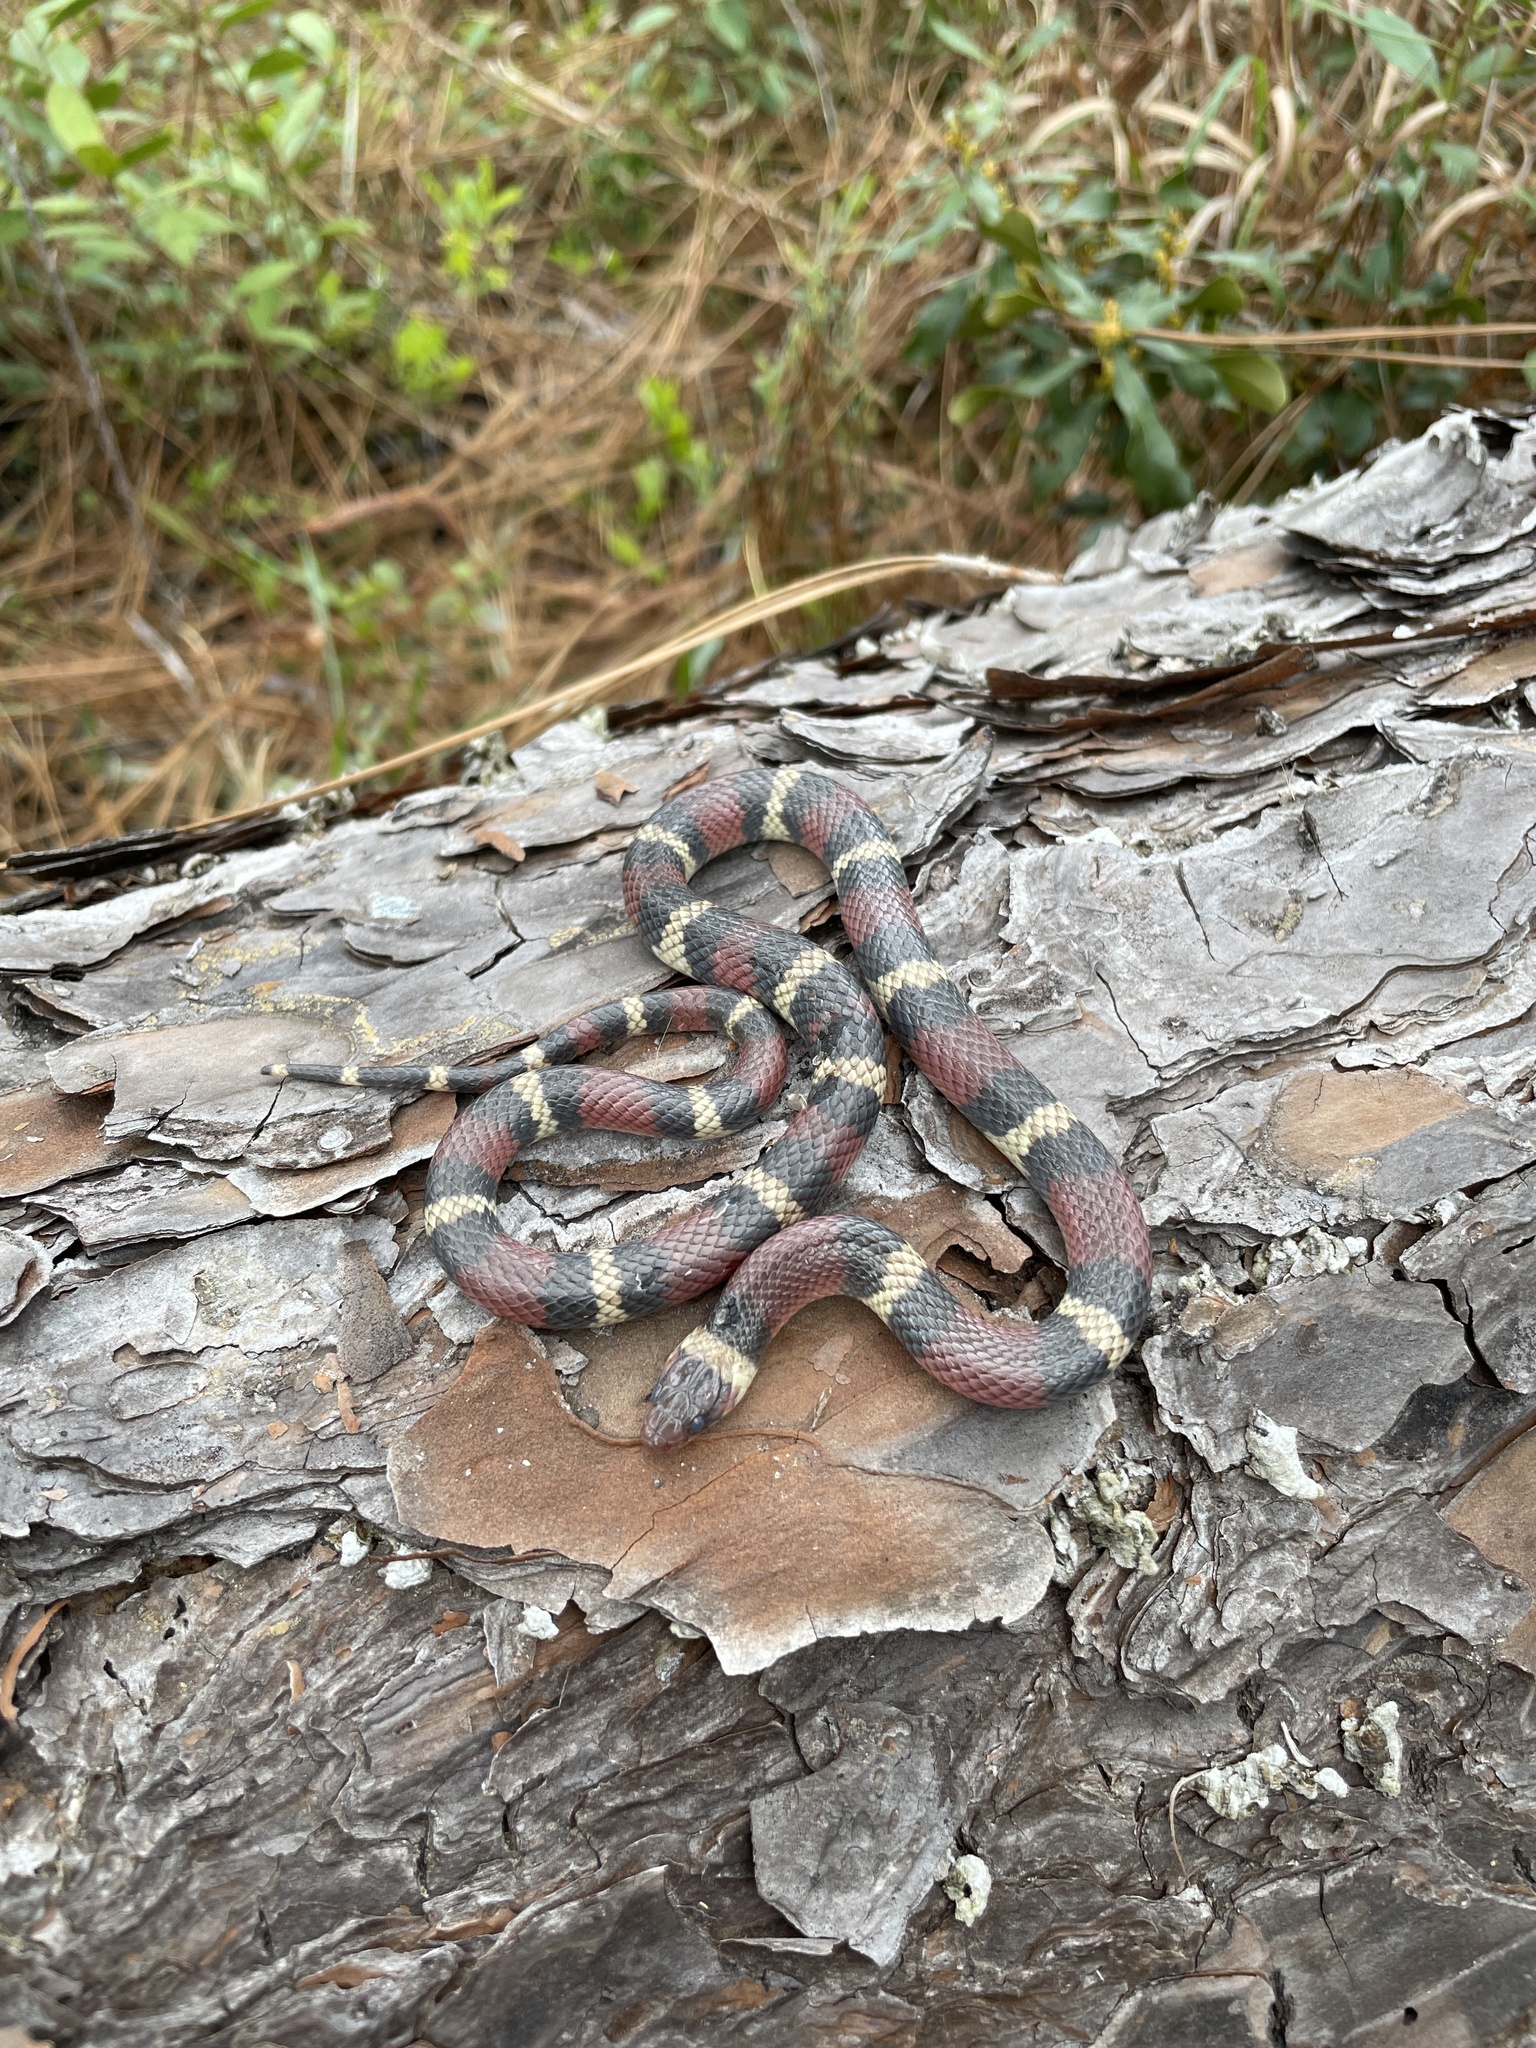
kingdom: Animalia
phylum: Chordata
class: Squamata
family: Colubridae
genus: Lampropeltis
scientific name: Lampropeltis elapsoides
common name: Scarlet kingsnake
